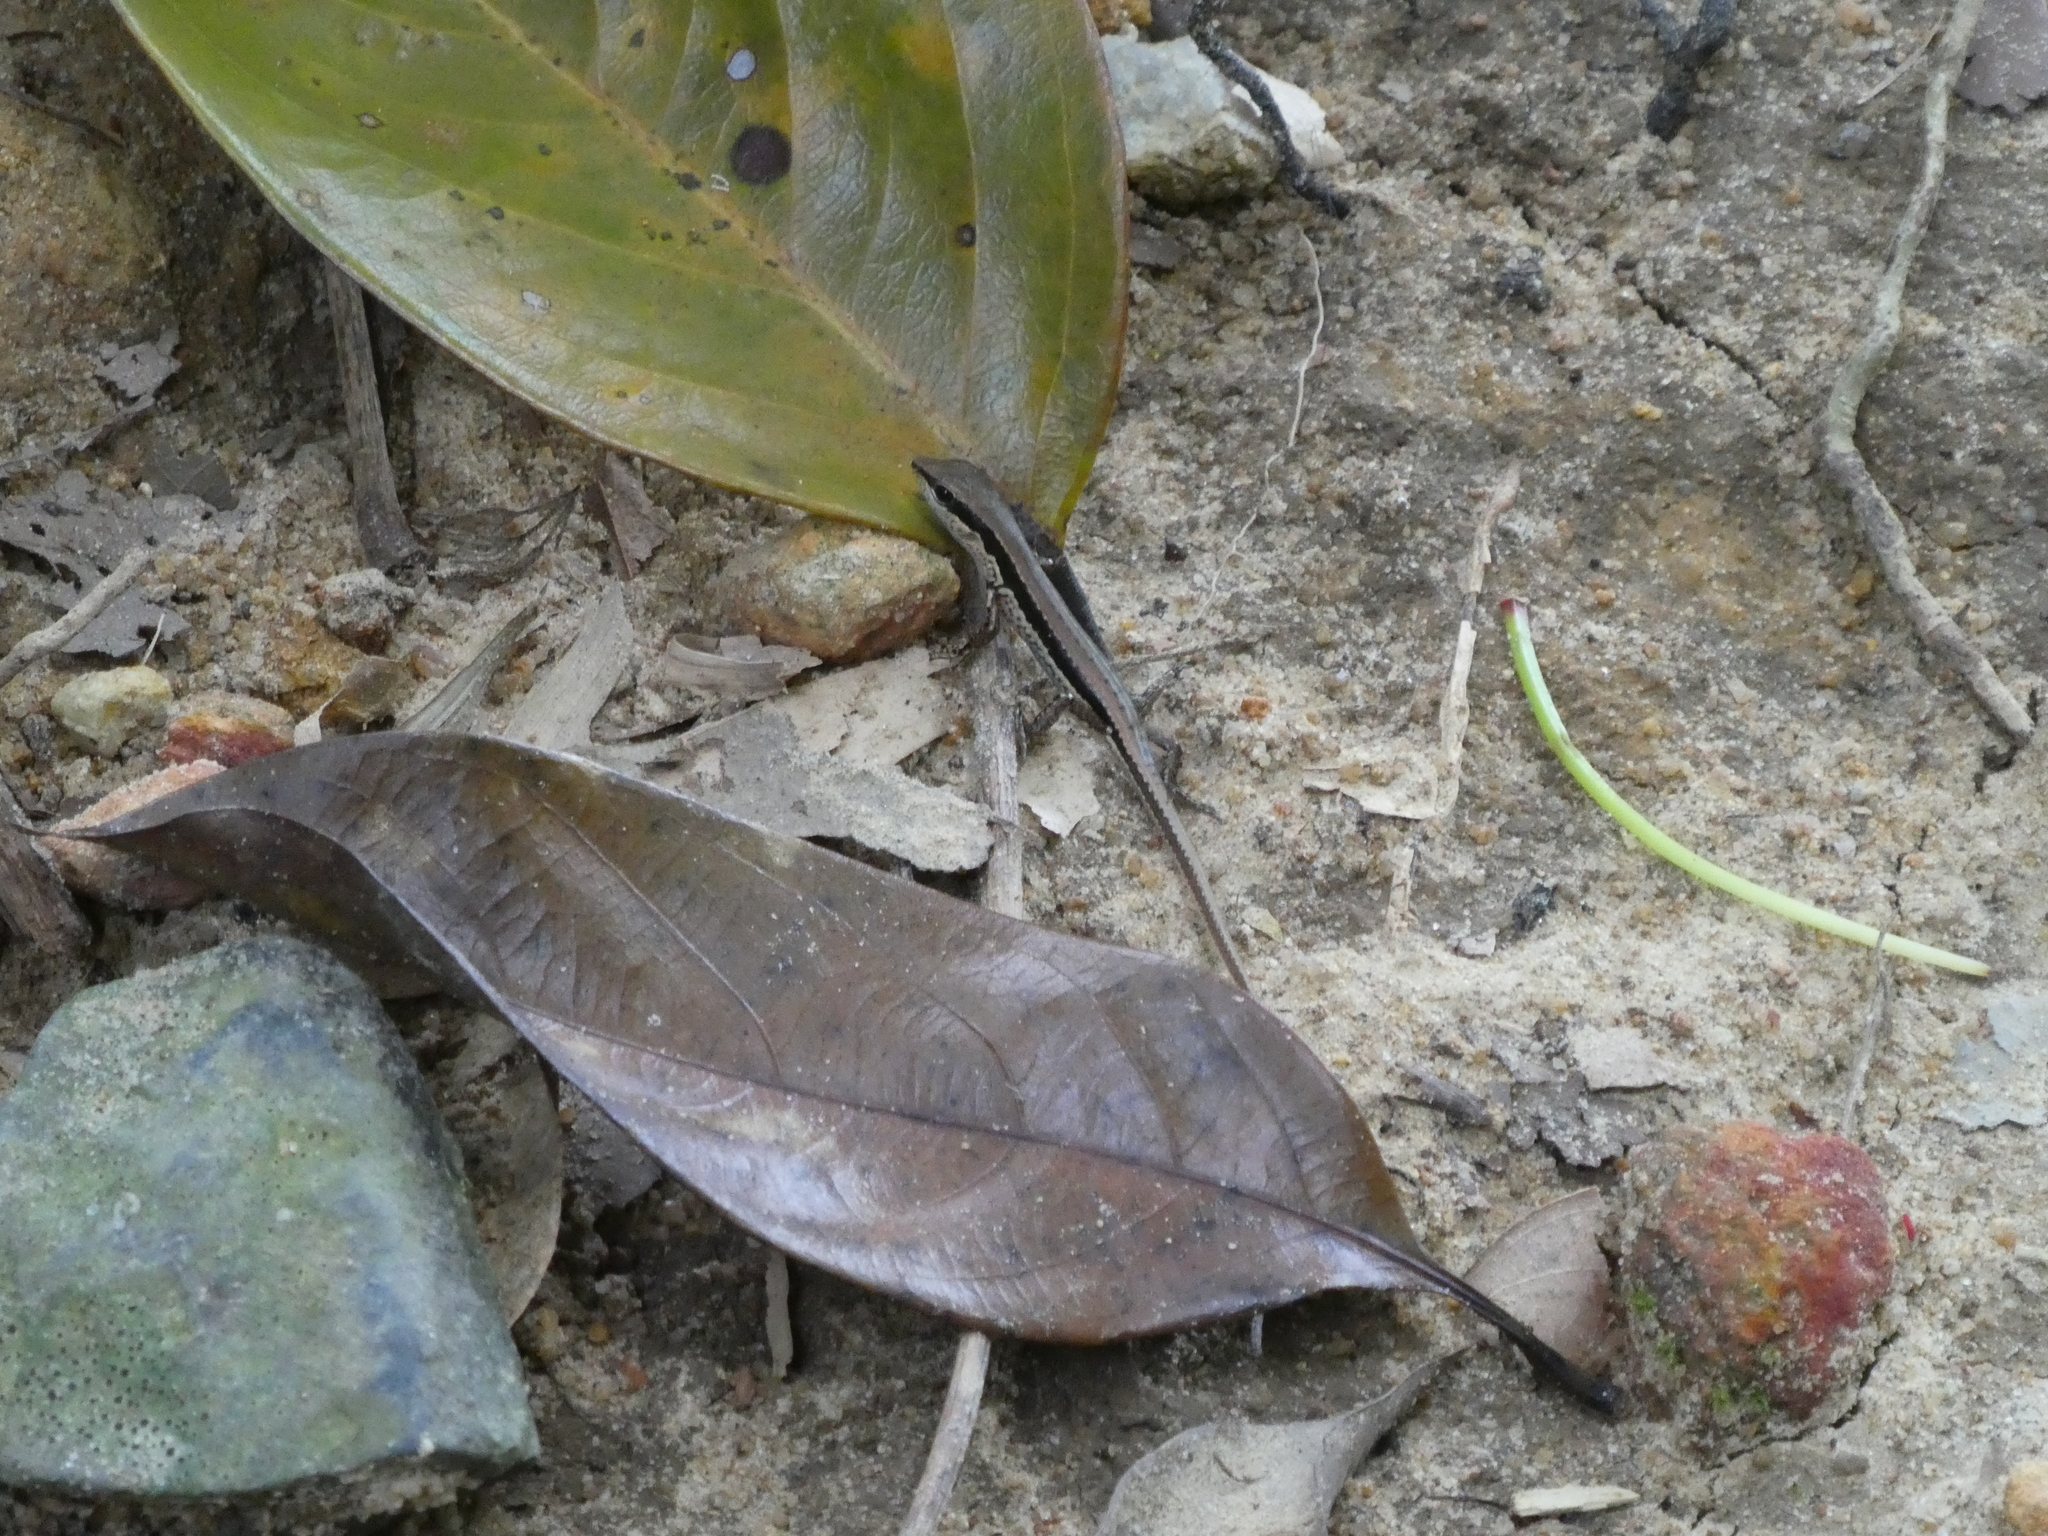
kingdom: Animalia
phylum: Chordata
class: Squamata
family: Scincidae
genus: Sphenomorphus
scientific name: Sphenomorphus maculatus
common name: Maculated forest skink
